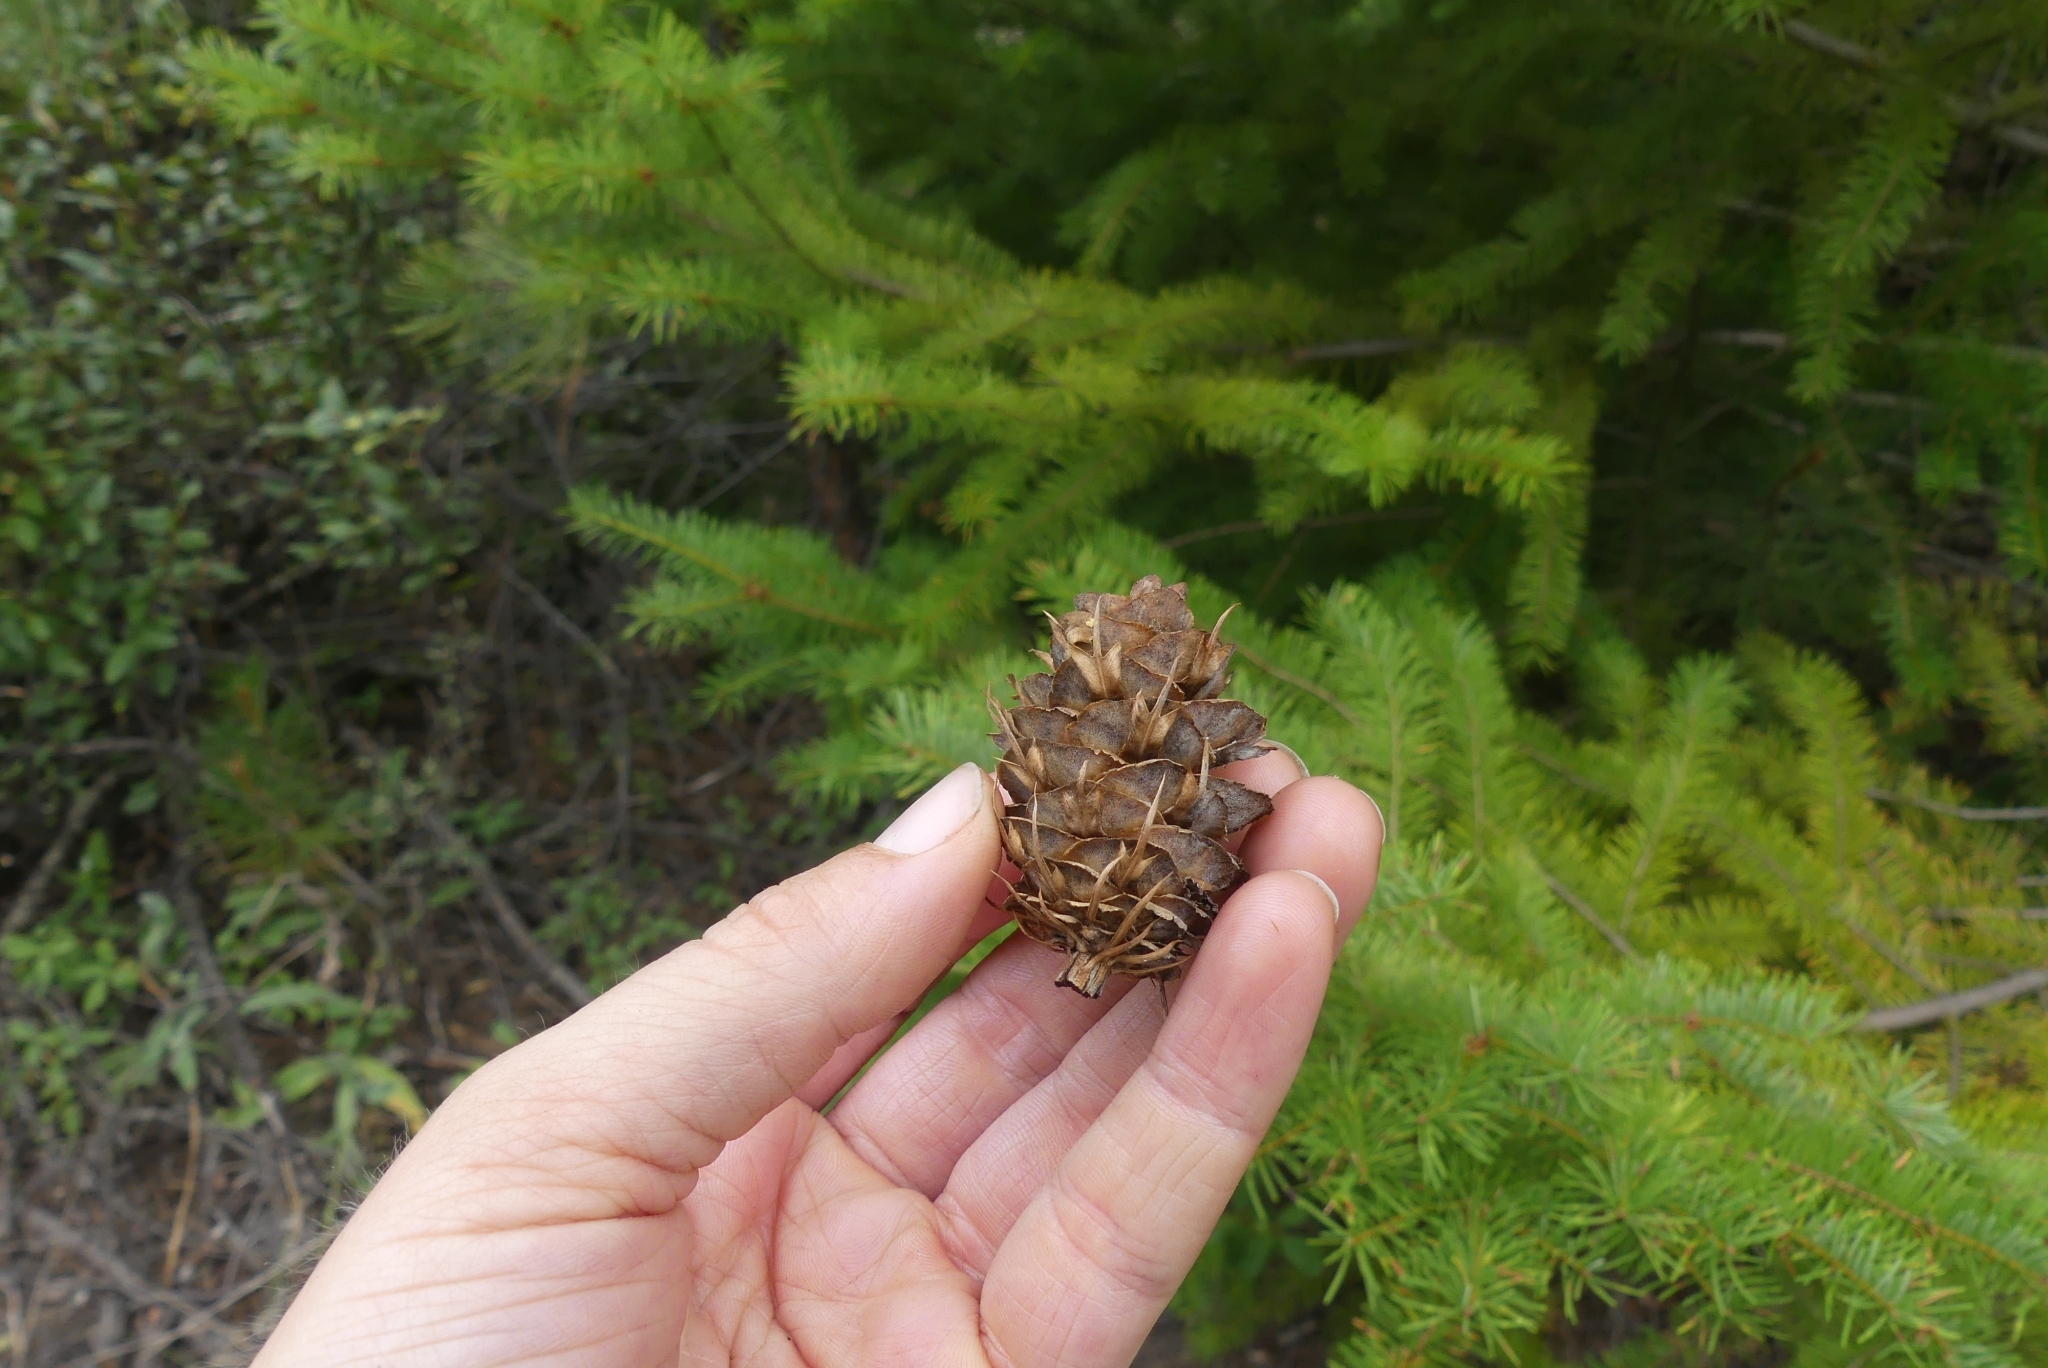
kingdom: Plantae
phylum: Tracheophyta
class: Pinopsida
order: Pinales
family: Pinaceae
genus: Pseudotsuga
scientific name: Pseudotsuga menziesii
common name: Douglas fir
